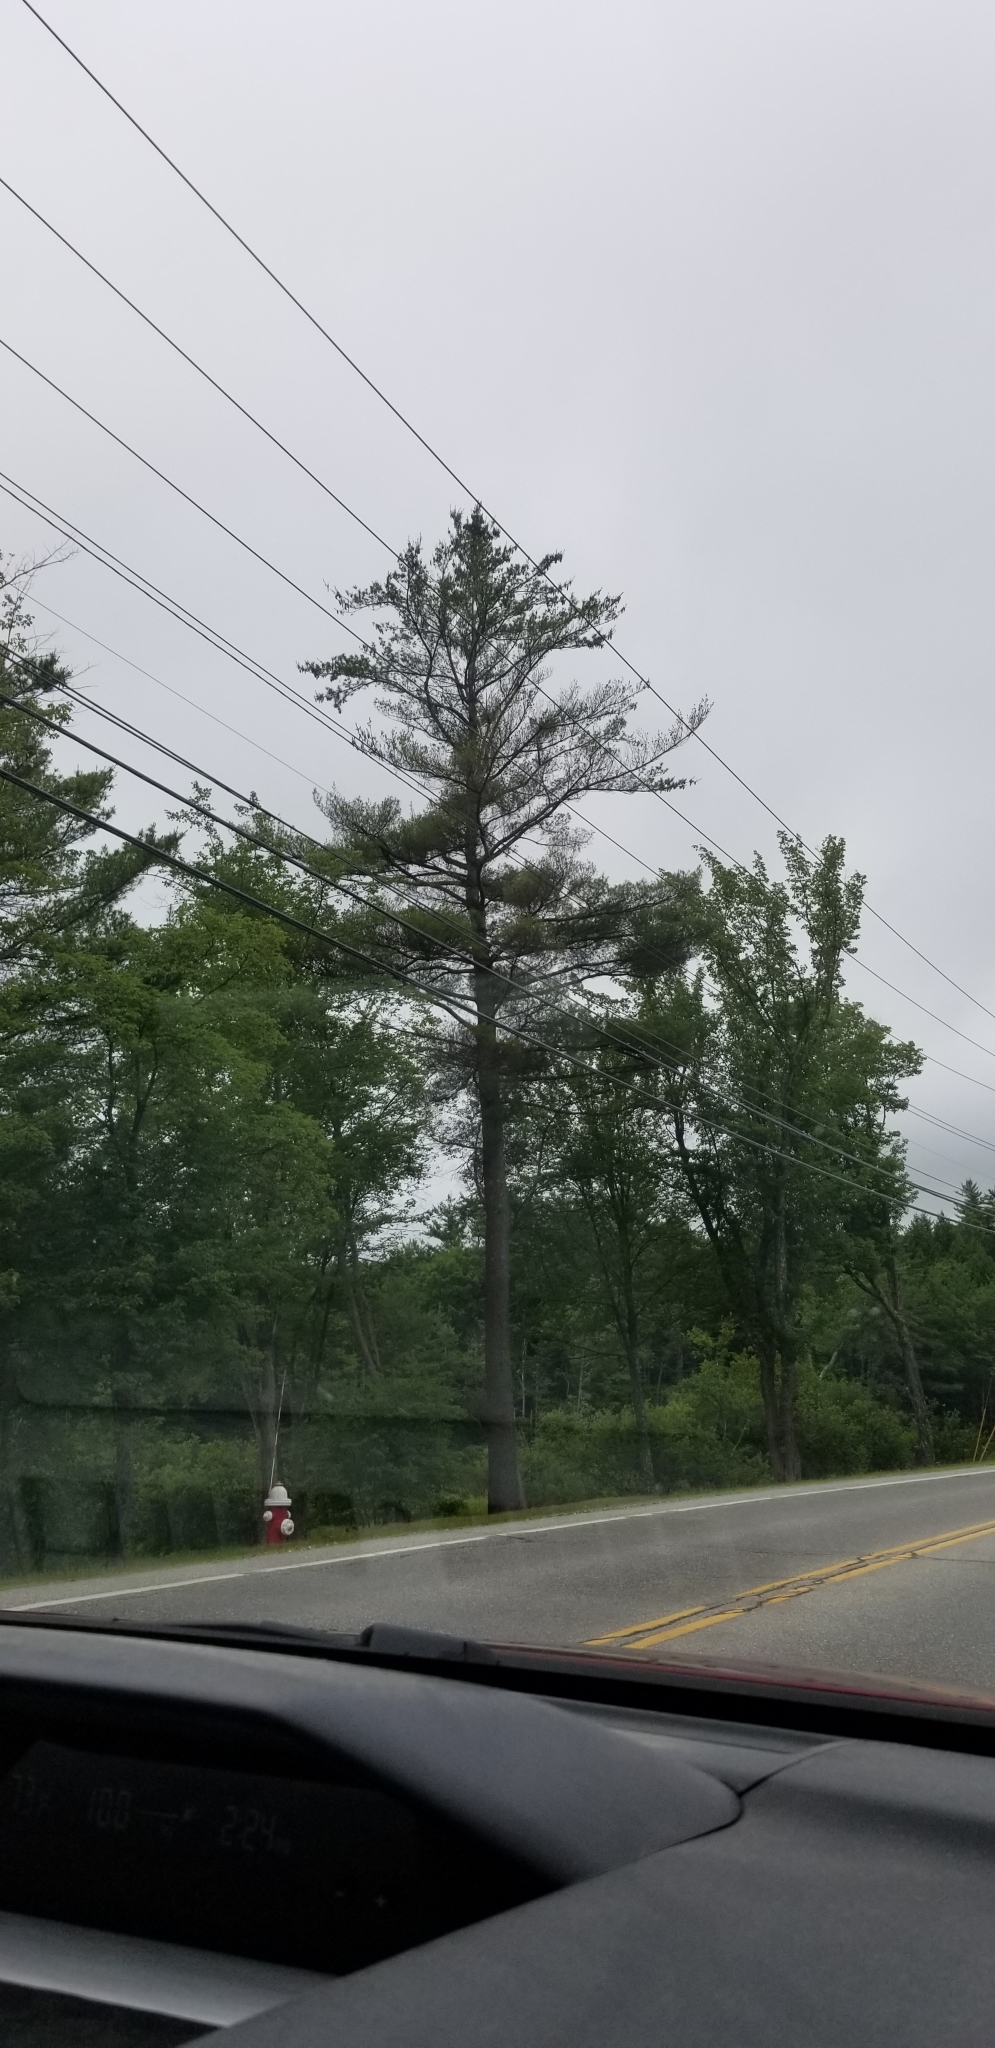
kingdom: Plantae
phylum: Tracheophyta
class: Pinopsida
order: Pinales
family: Pinaceae
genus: Pinus
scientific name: Pinus strobus
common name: Weymouth pine
